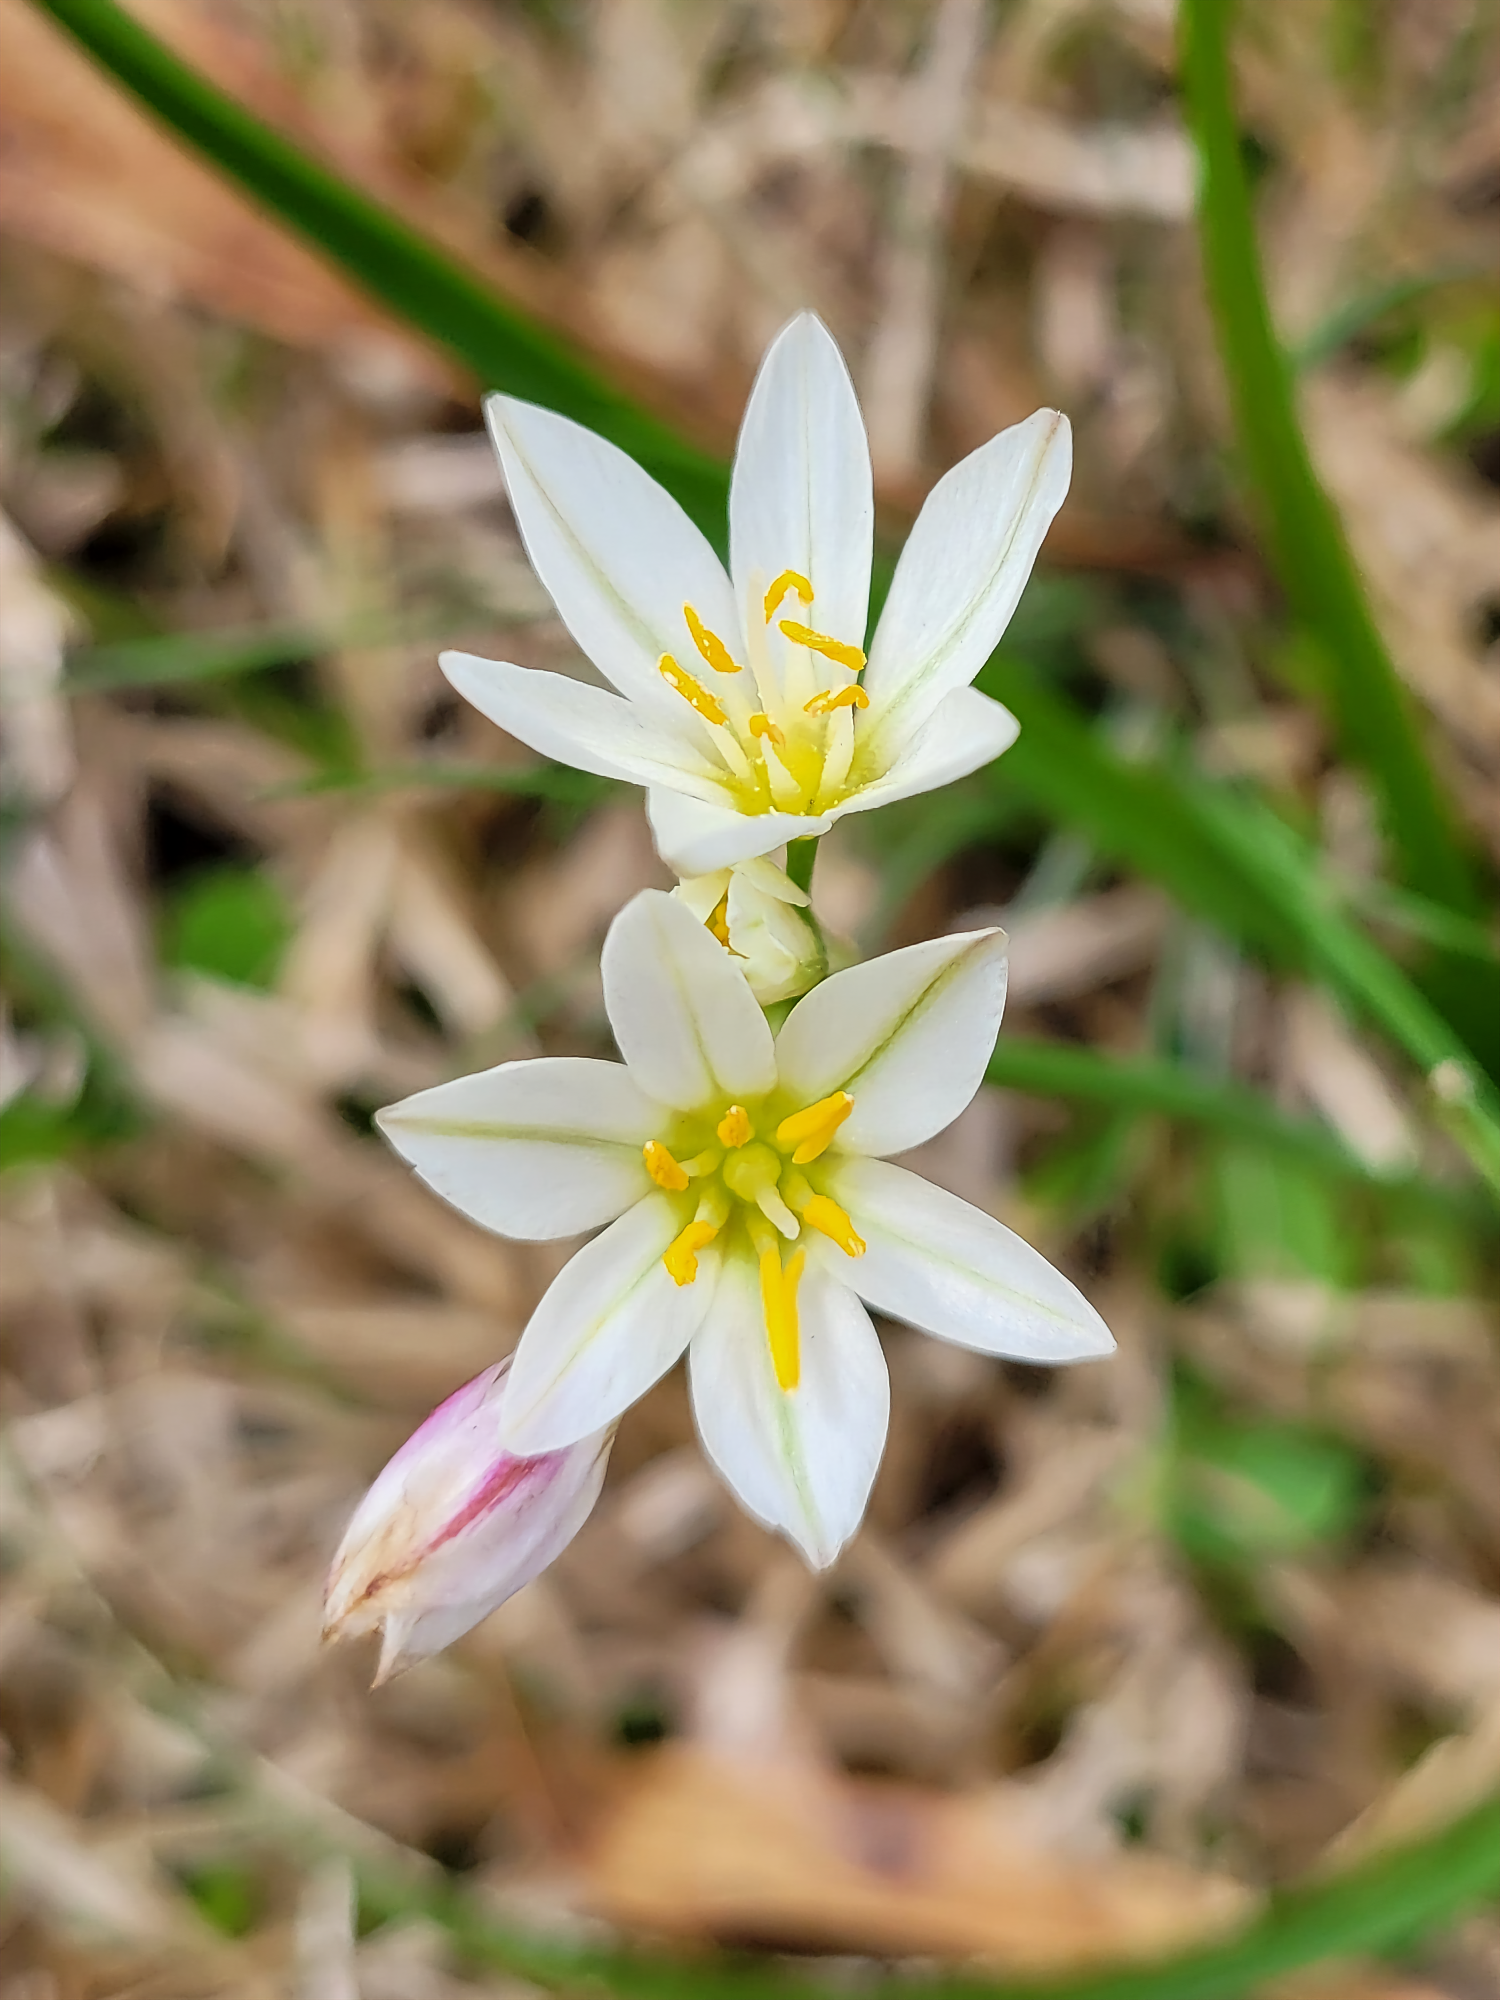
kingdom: Plantae
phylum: Tracheophyta
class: Liliopsida
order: Asparagales
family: Amaryllidaceae
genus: Nothoscordum
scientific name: Nothoscordum bivalve
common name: Crow-poison
